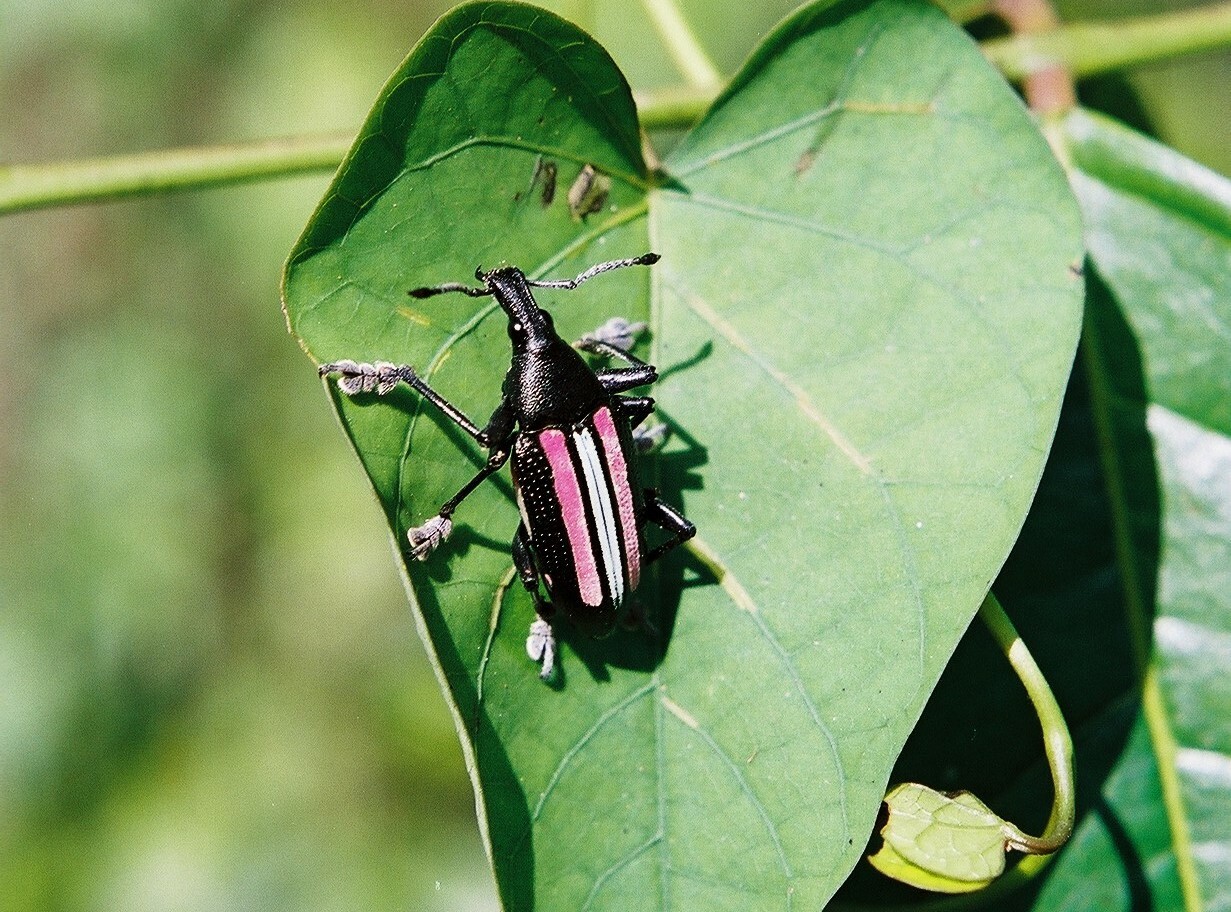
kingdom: Animalia
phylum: Arthropoda
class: Insecta
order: Coleoptera
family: Curculionidae
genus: Exophthalmus
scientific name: Exophthalmus vittatus
